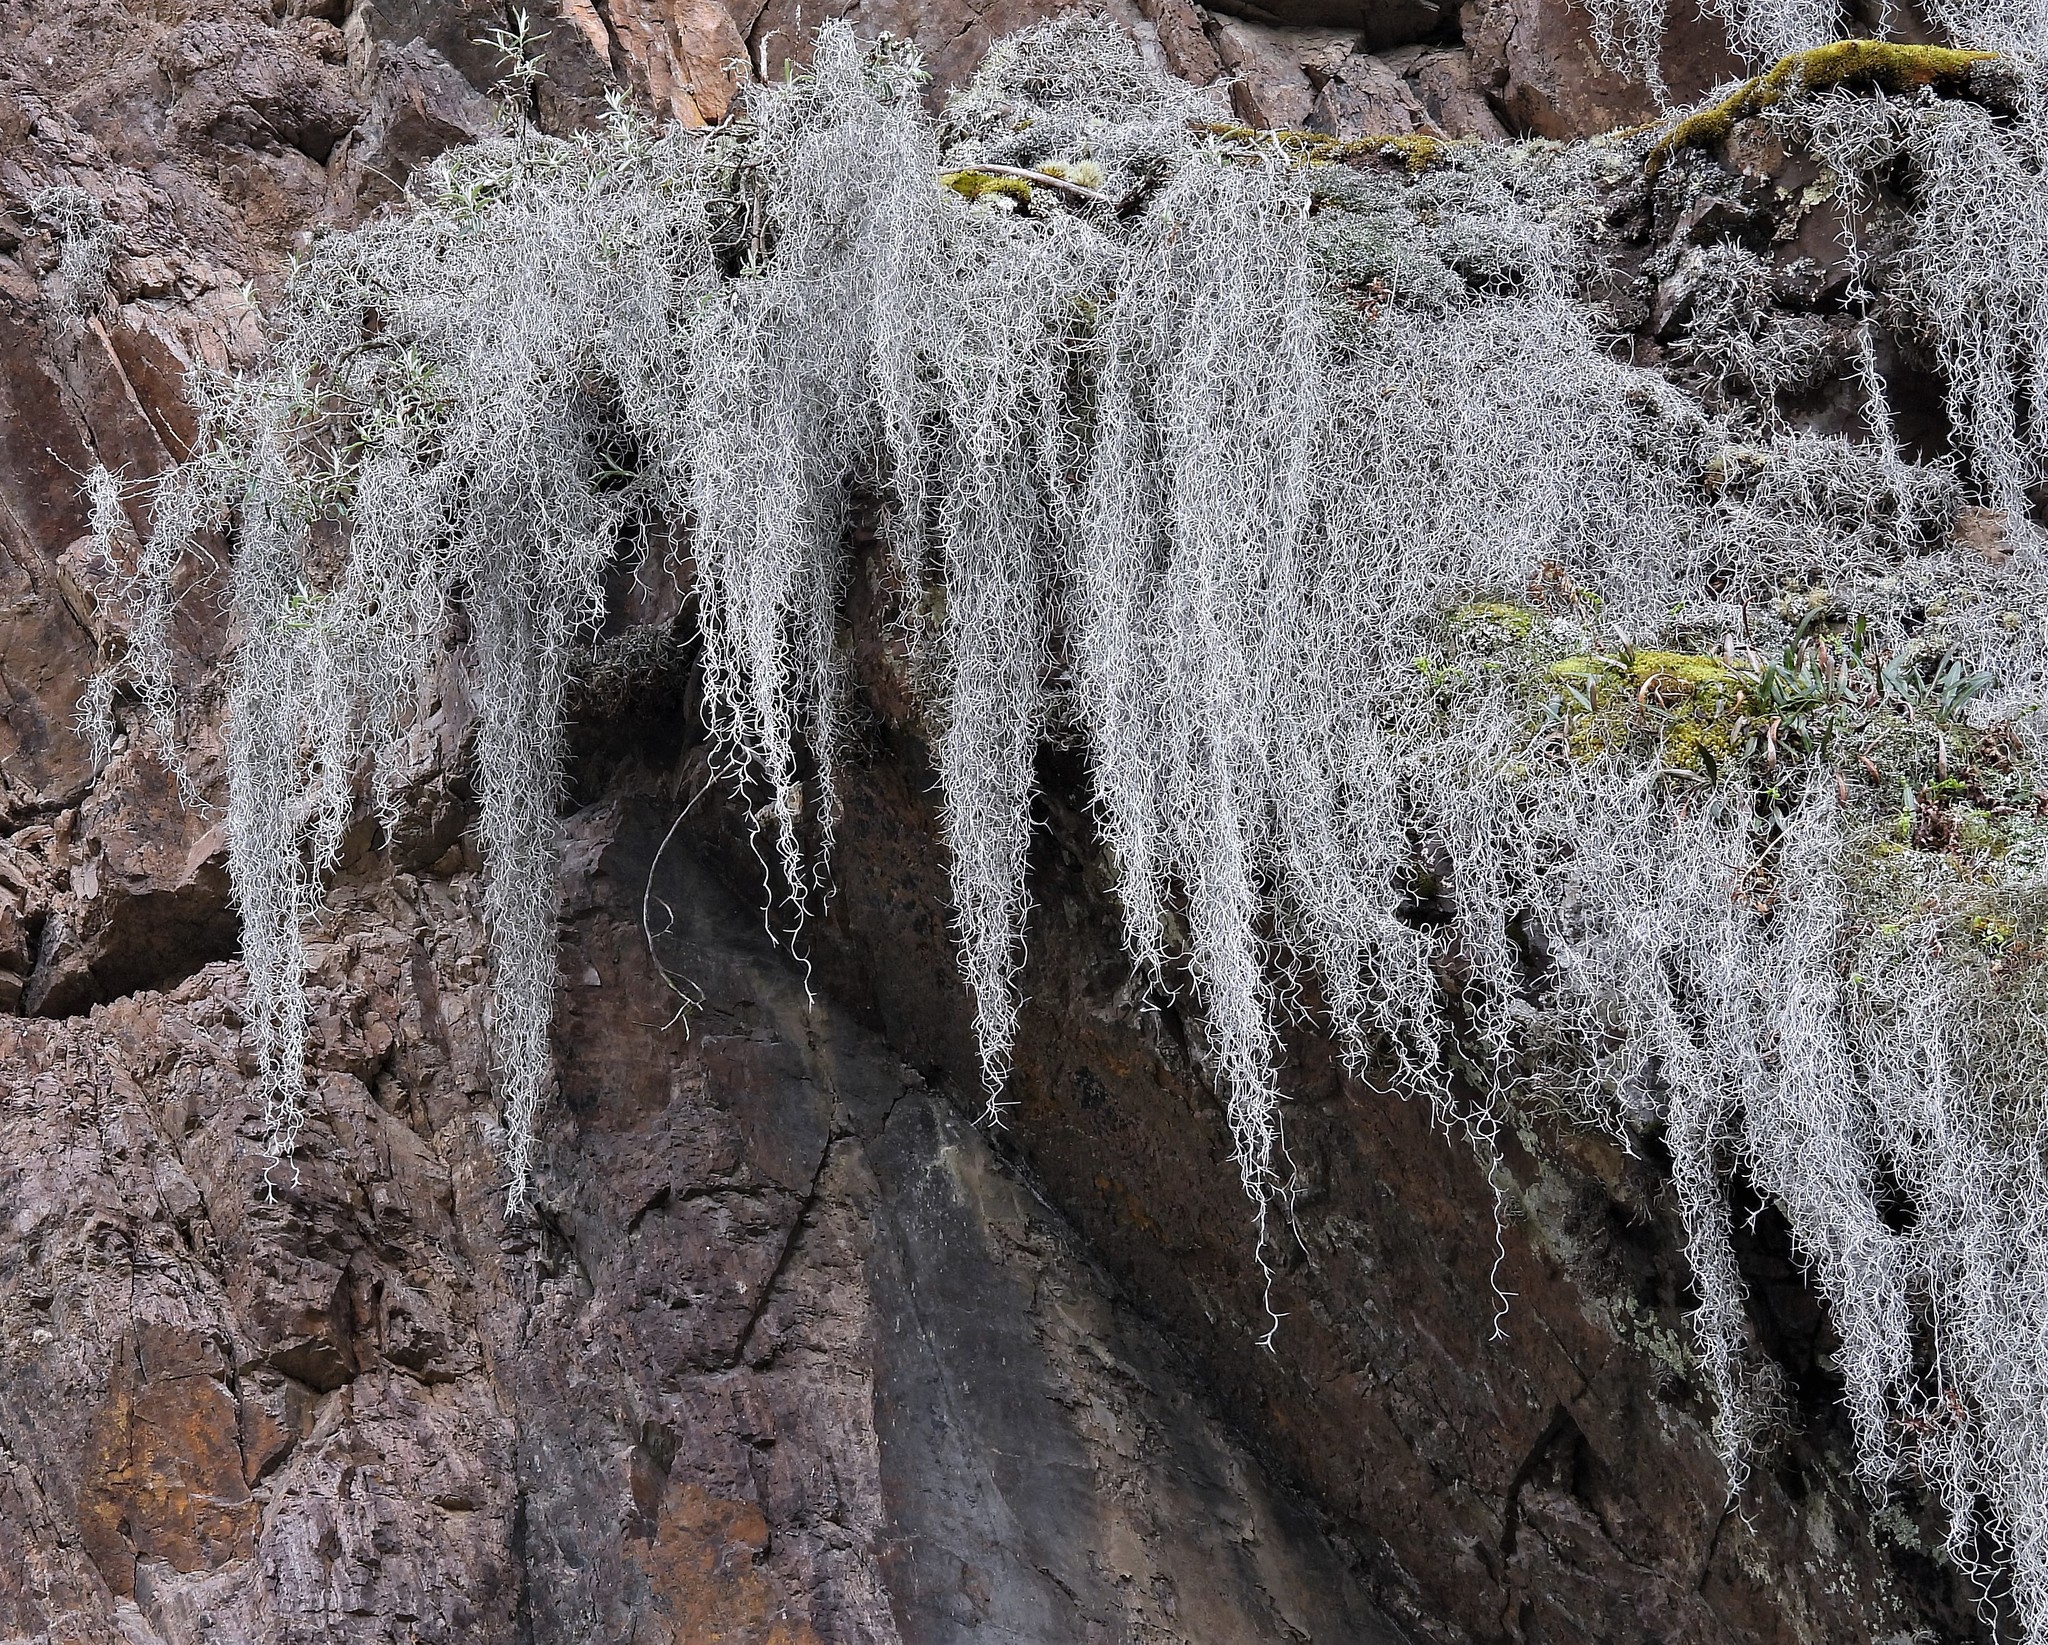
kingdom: Plantae
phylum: Tracheophyta
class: Liliopsida
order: Poales
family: Bromeliaceae
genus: Tillandsia
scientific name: Tillandsia usneoides
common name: Spanish moss
